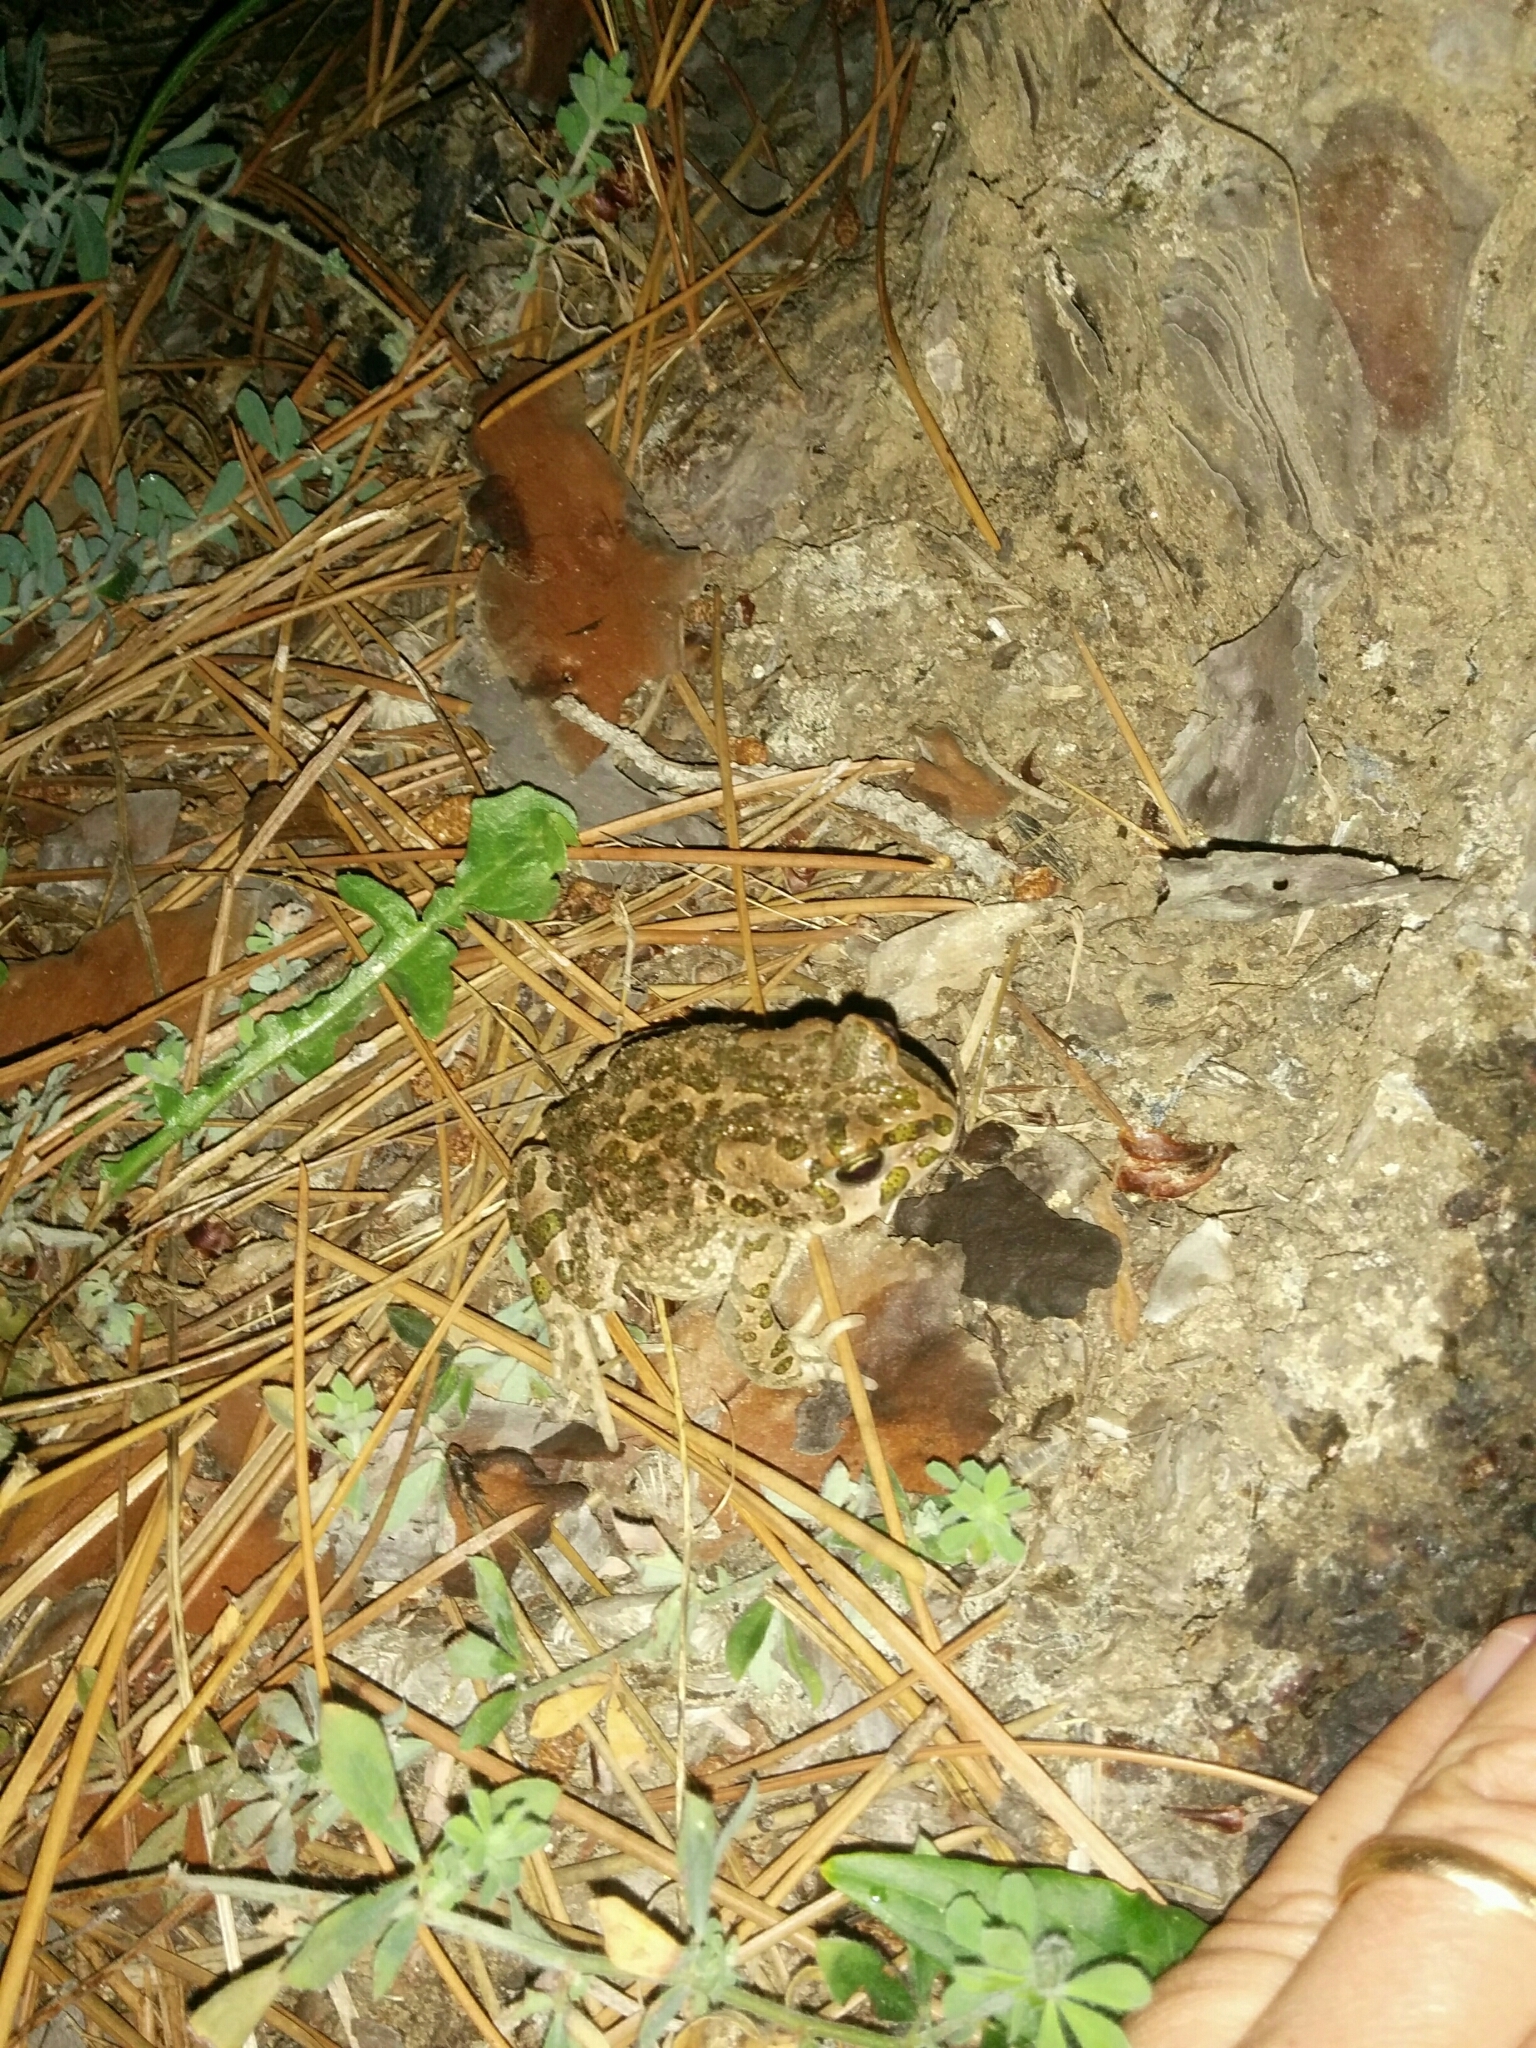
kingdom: Animalia
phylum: Chordata
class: Amphibia
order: Anura
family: Bufonidae
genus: Bufotes
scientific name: Bufotes viridis
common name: European green toad
